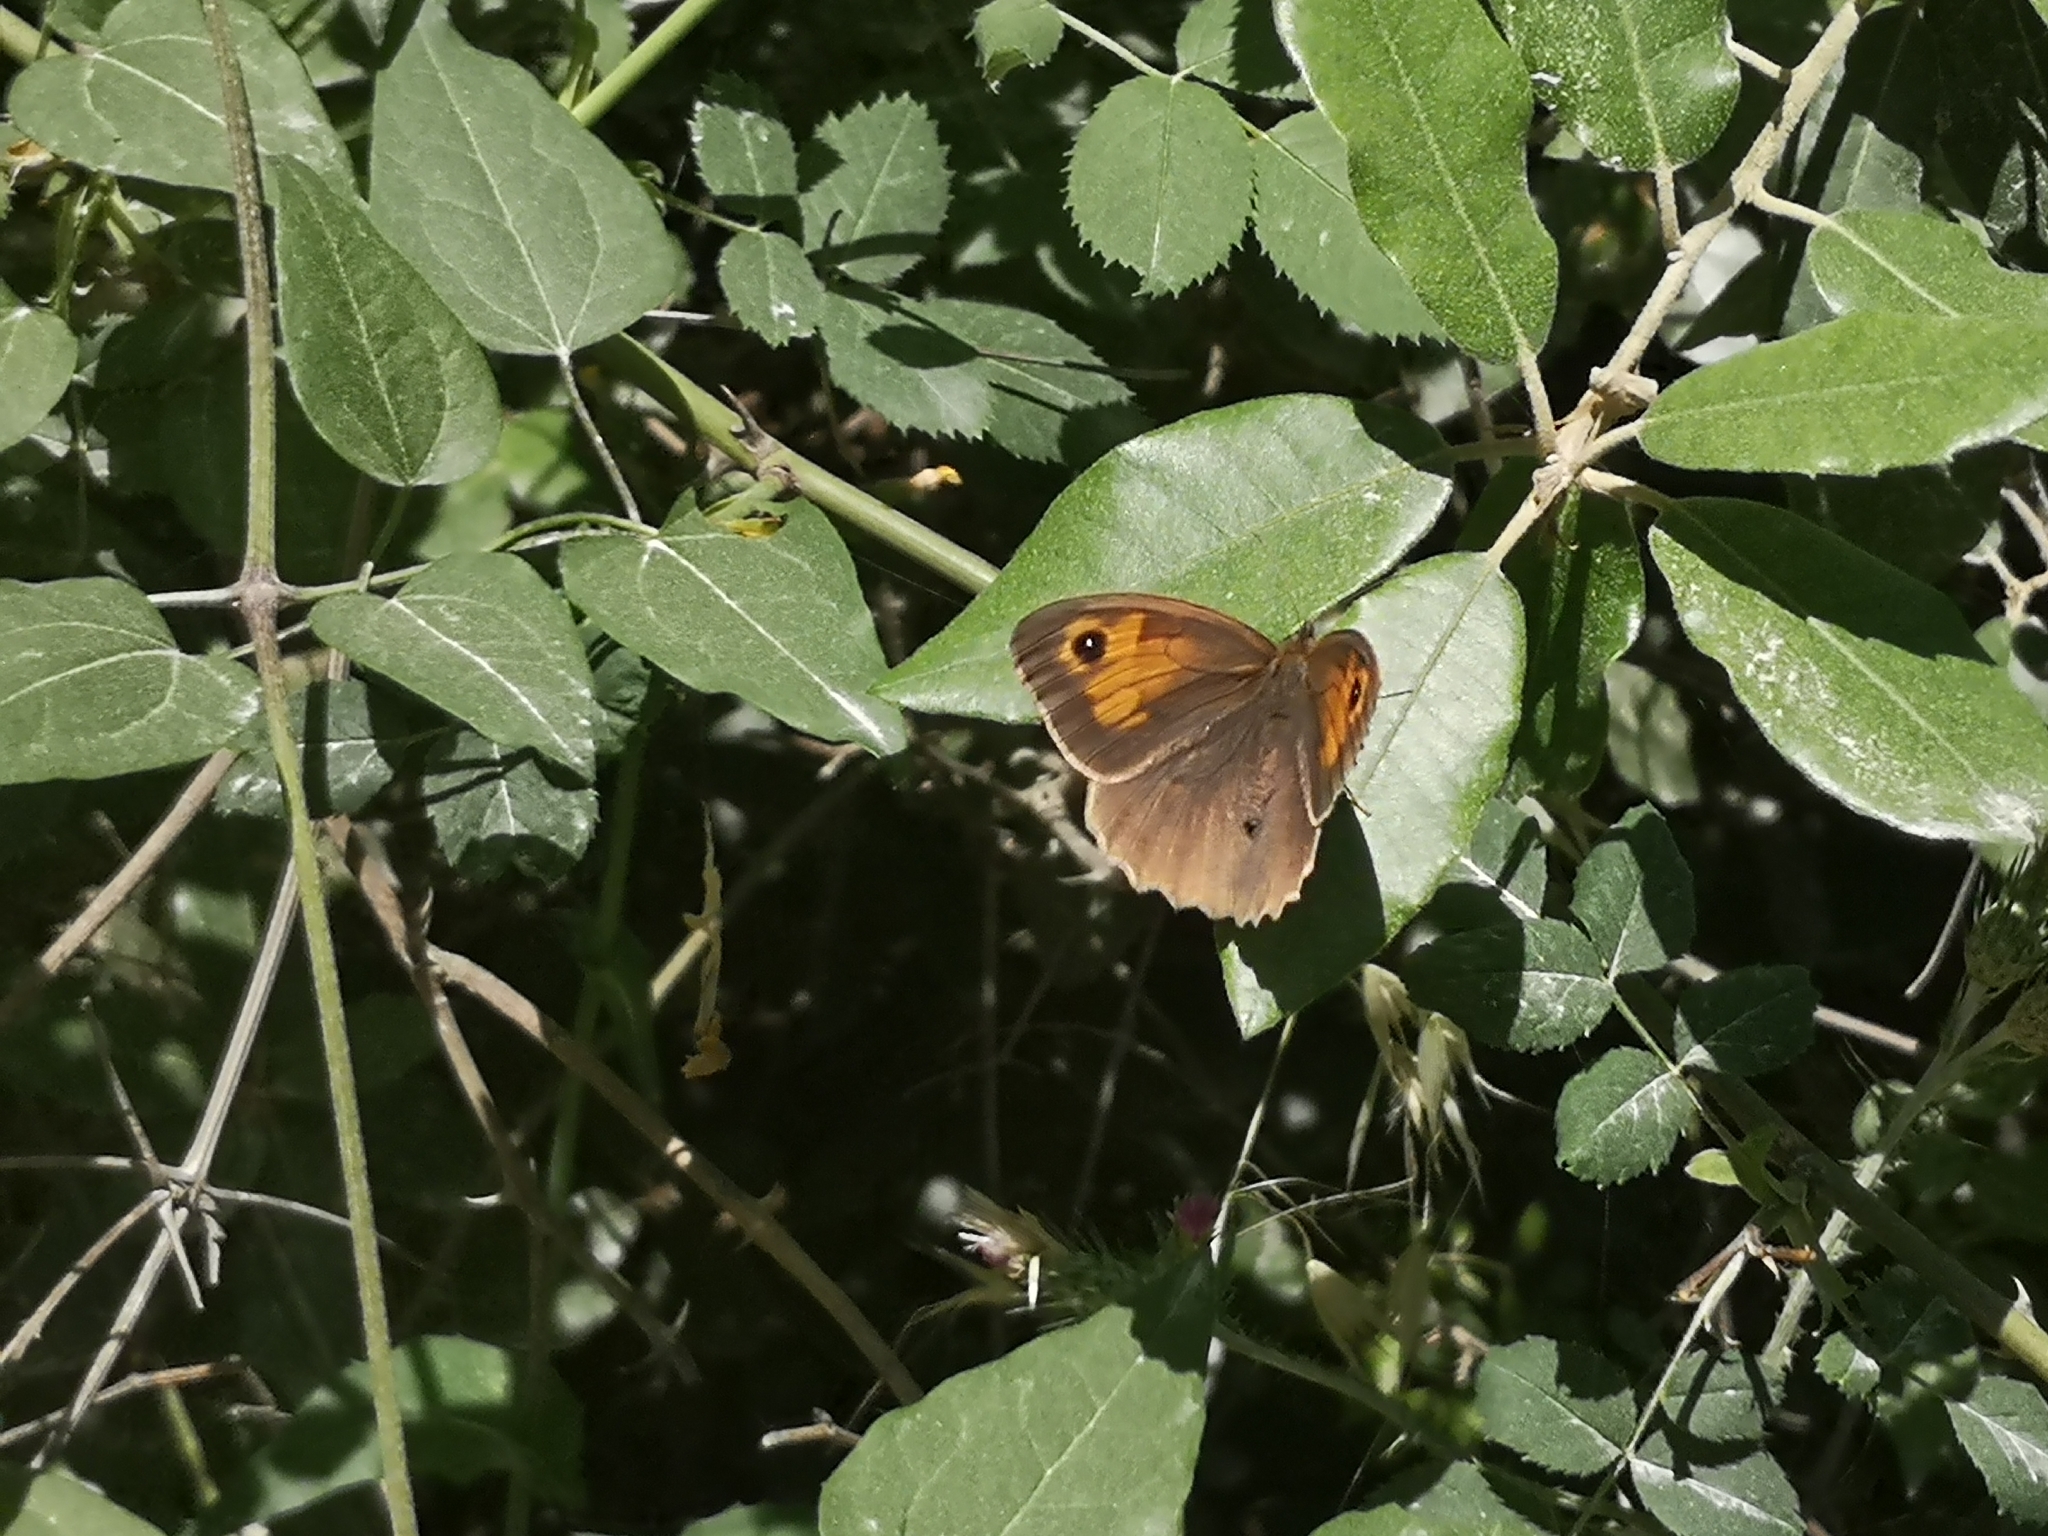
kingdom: Animalia
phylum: Arthropoda
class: Insecta
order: Lepidoptera
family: Nymphalidae
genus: Maniola
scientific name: Maniola jurtina
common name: Meadow brown
